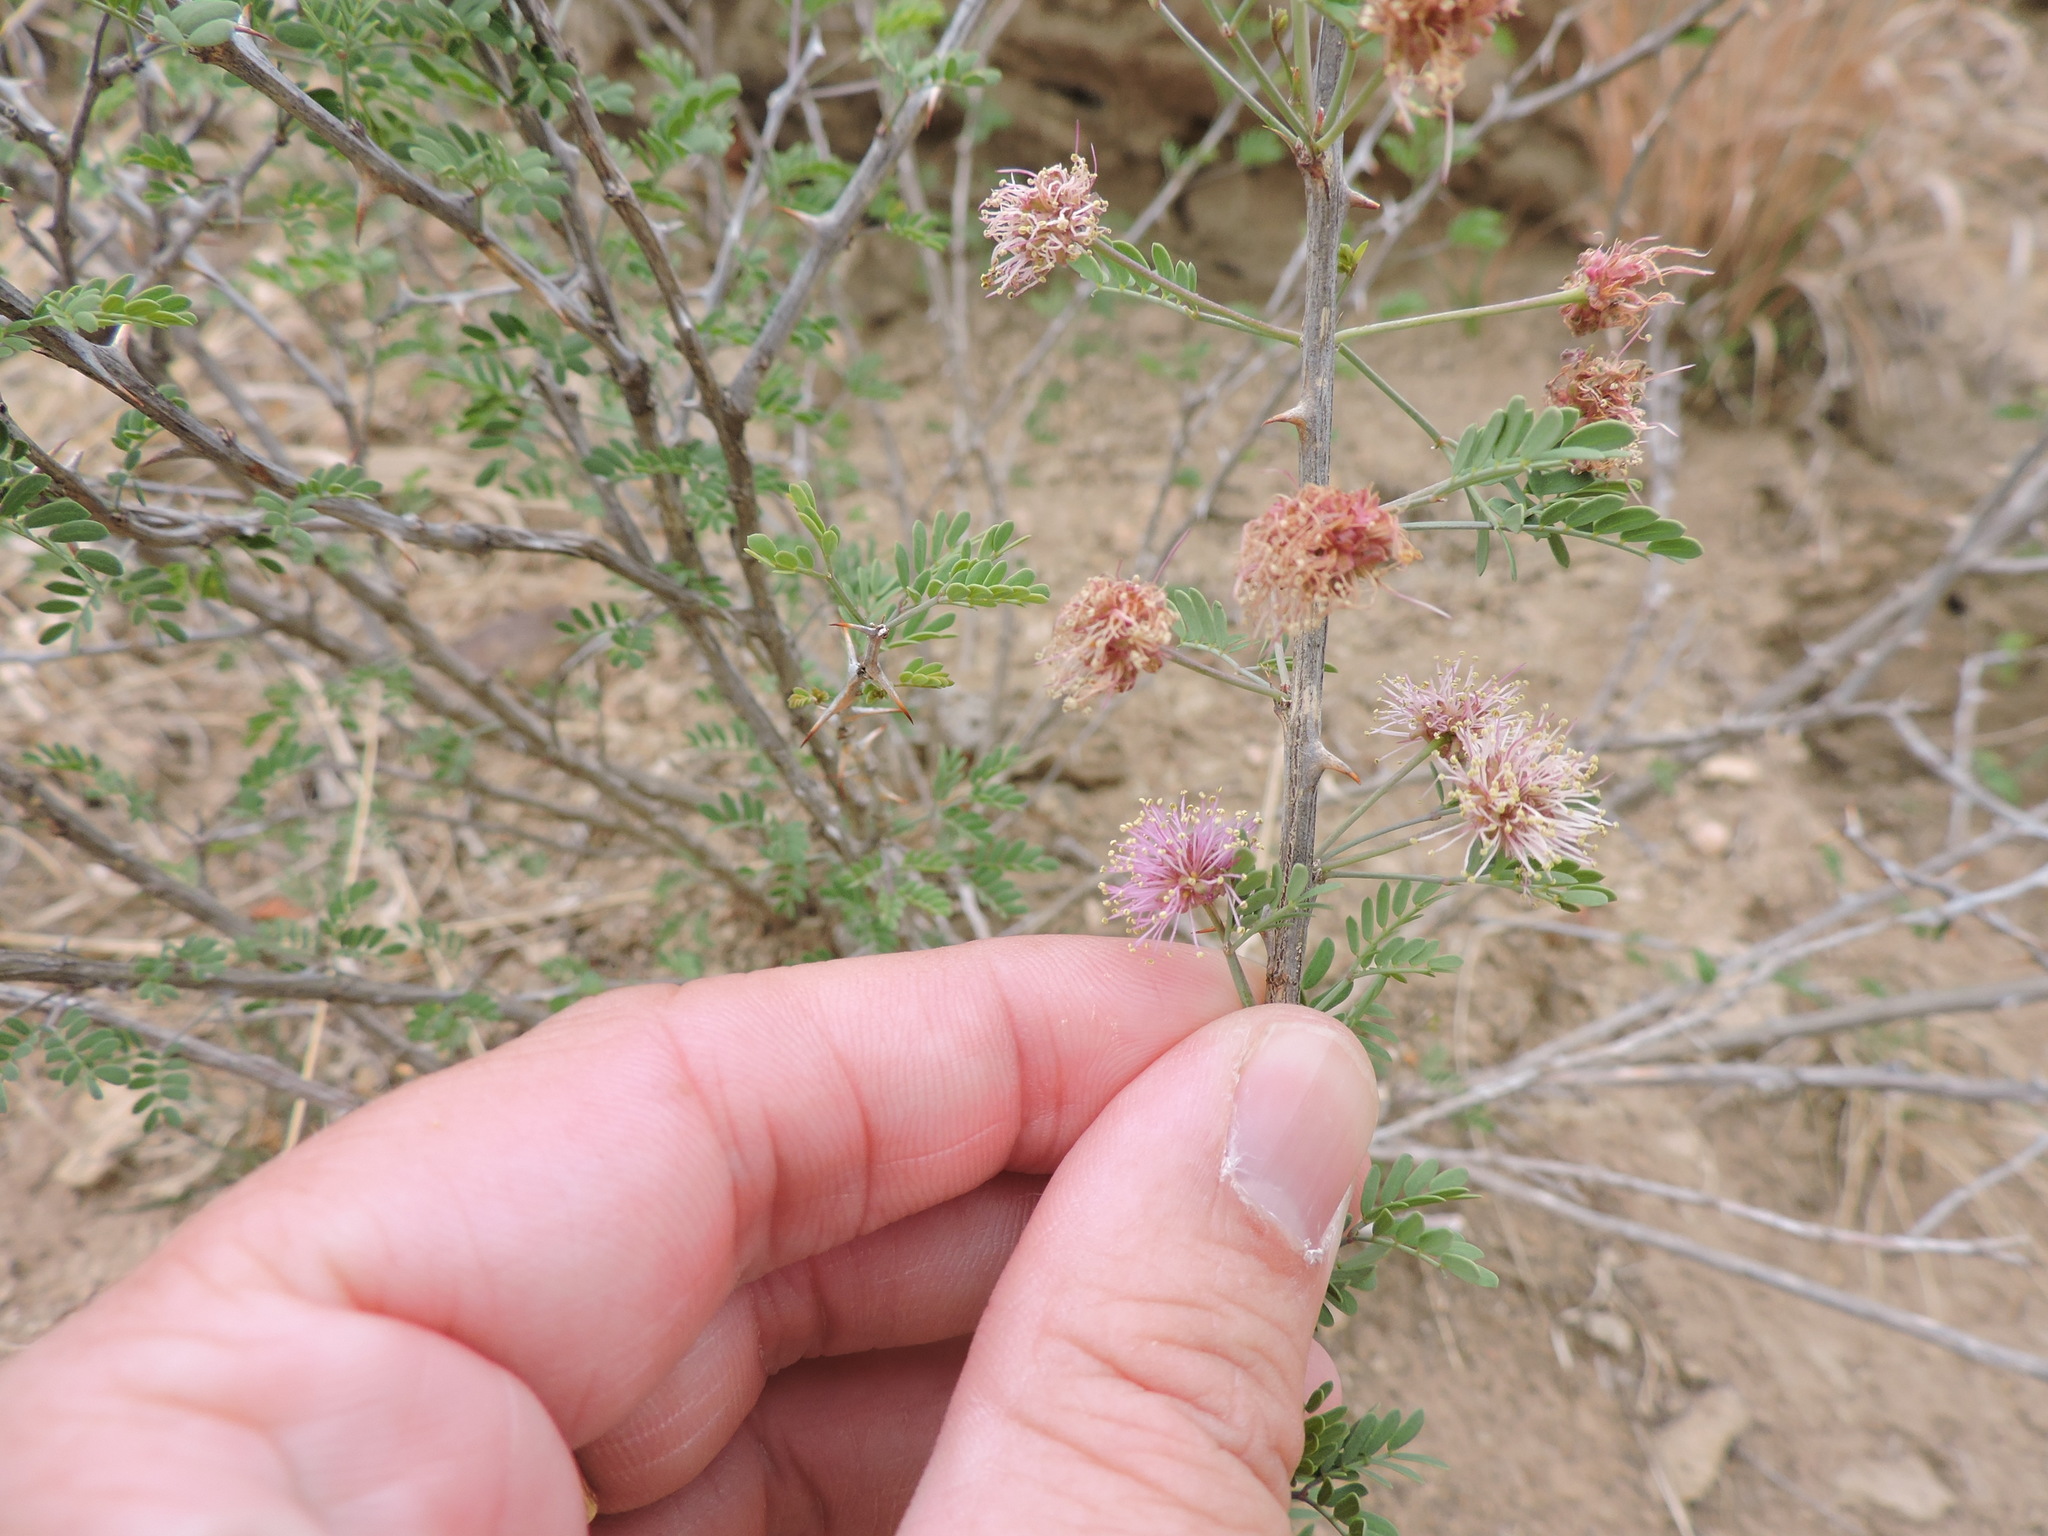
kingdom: Plantae
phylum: Tracheophyta
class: Magnoliopsida
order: Fabales
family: Fabaceae
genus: Mimosa
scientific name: Mimosa borealis
